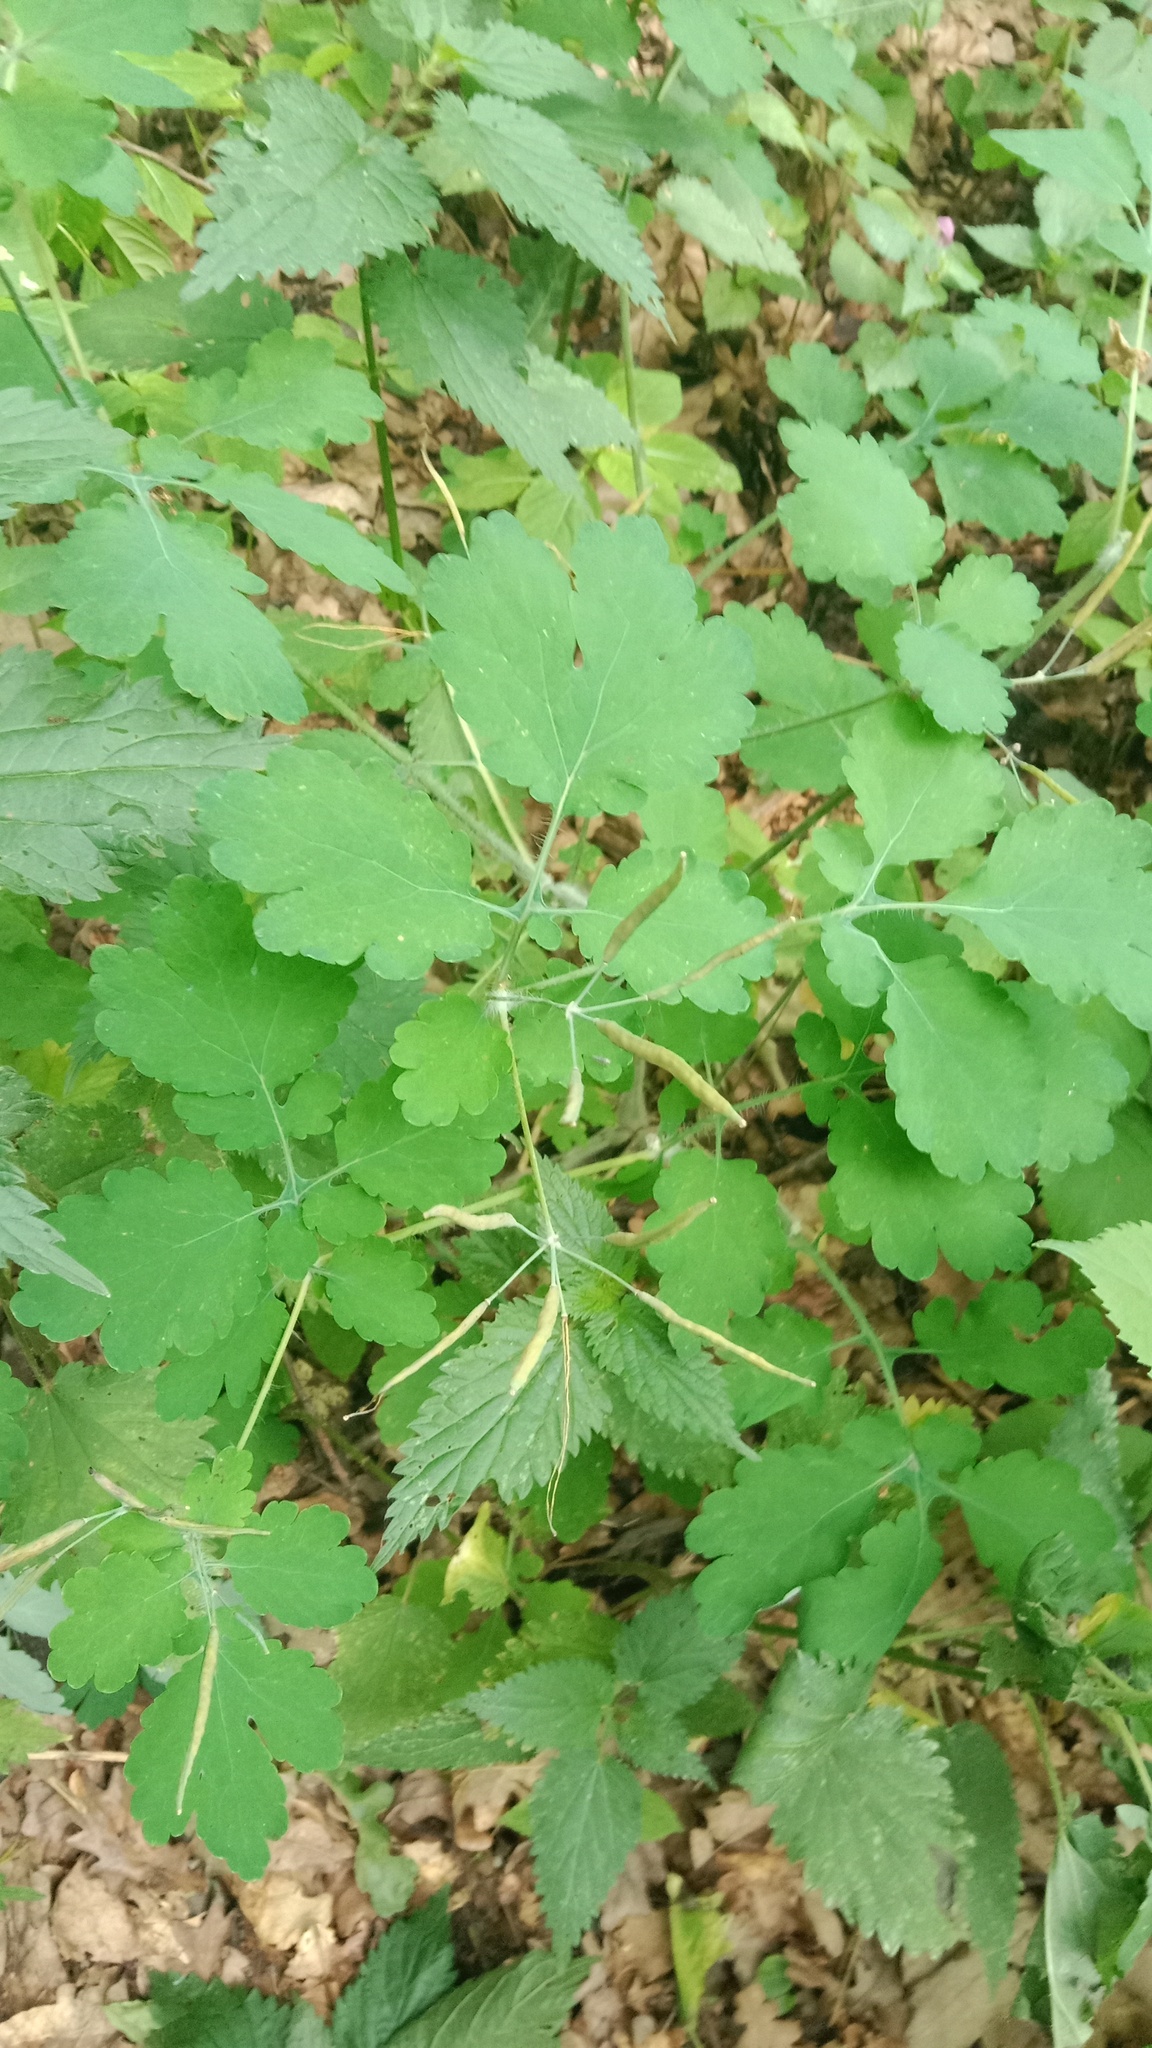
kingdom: Plantae
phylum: Tracheophyta
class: Magnoliopsida
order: Ranunculales
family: Papaveraceae
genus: Chelidonium
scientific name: Chelidonium majus
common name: Greater celandine
